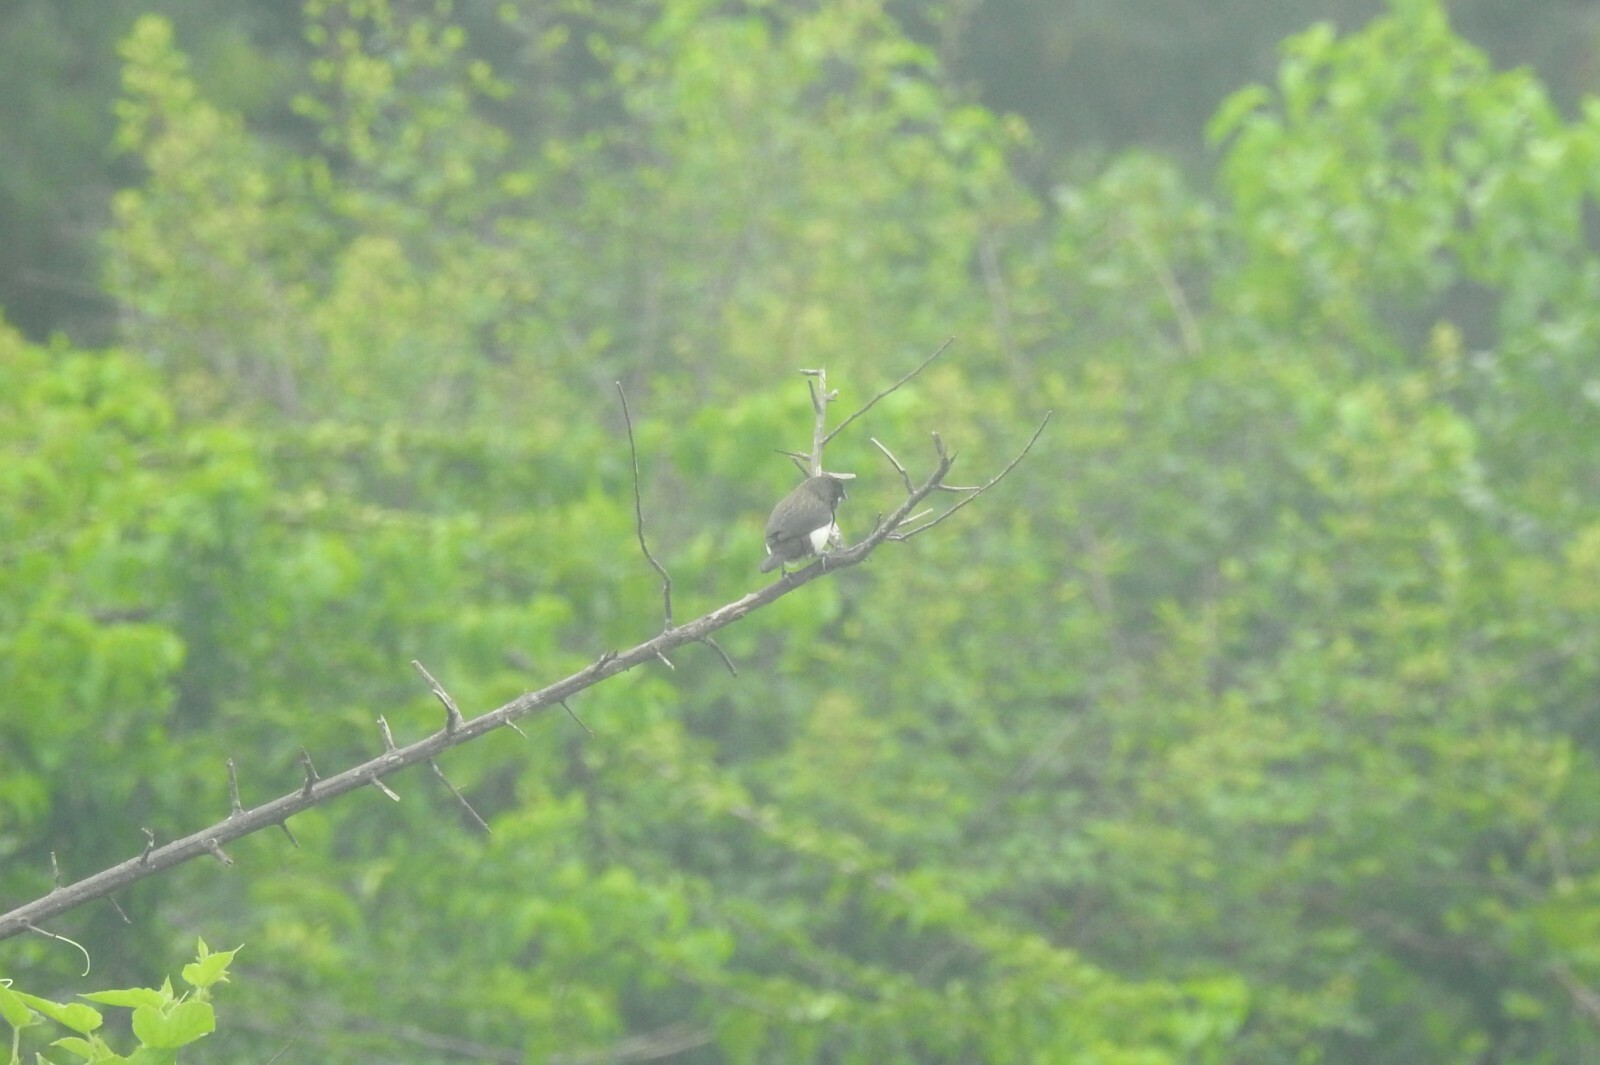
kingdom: Animalia
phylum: Chordata
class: Aves
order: Passeriformes
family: Estrildidae
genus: Lonchura
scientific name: Lonchura striata
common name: White-rumped munia
